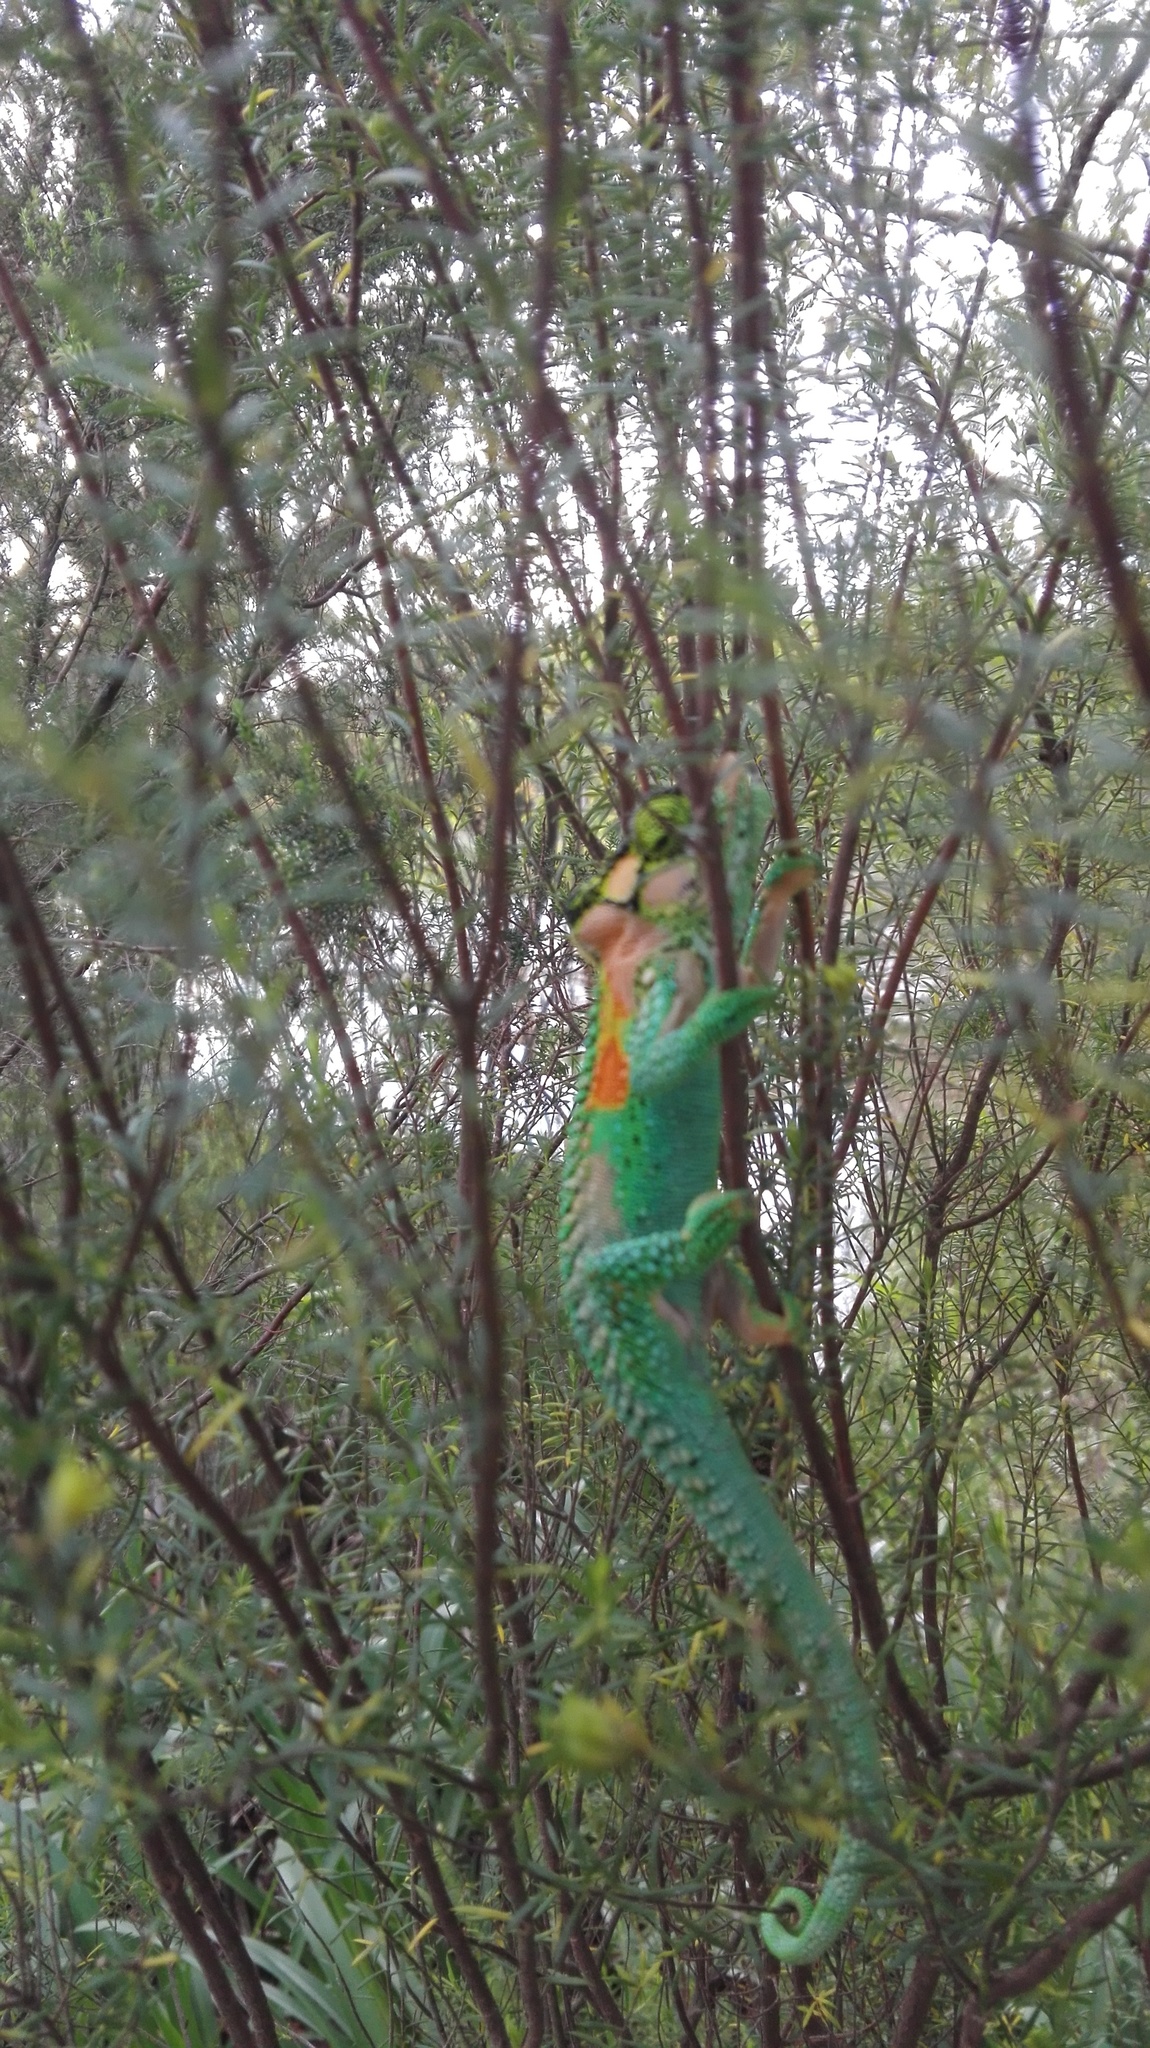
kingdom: Animalia
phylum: Chordata
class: Squamata
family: Chamaeleonidae
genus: Bradypodion
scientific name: Bradypodion damaranum
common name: Knysna dwarf chameleon
